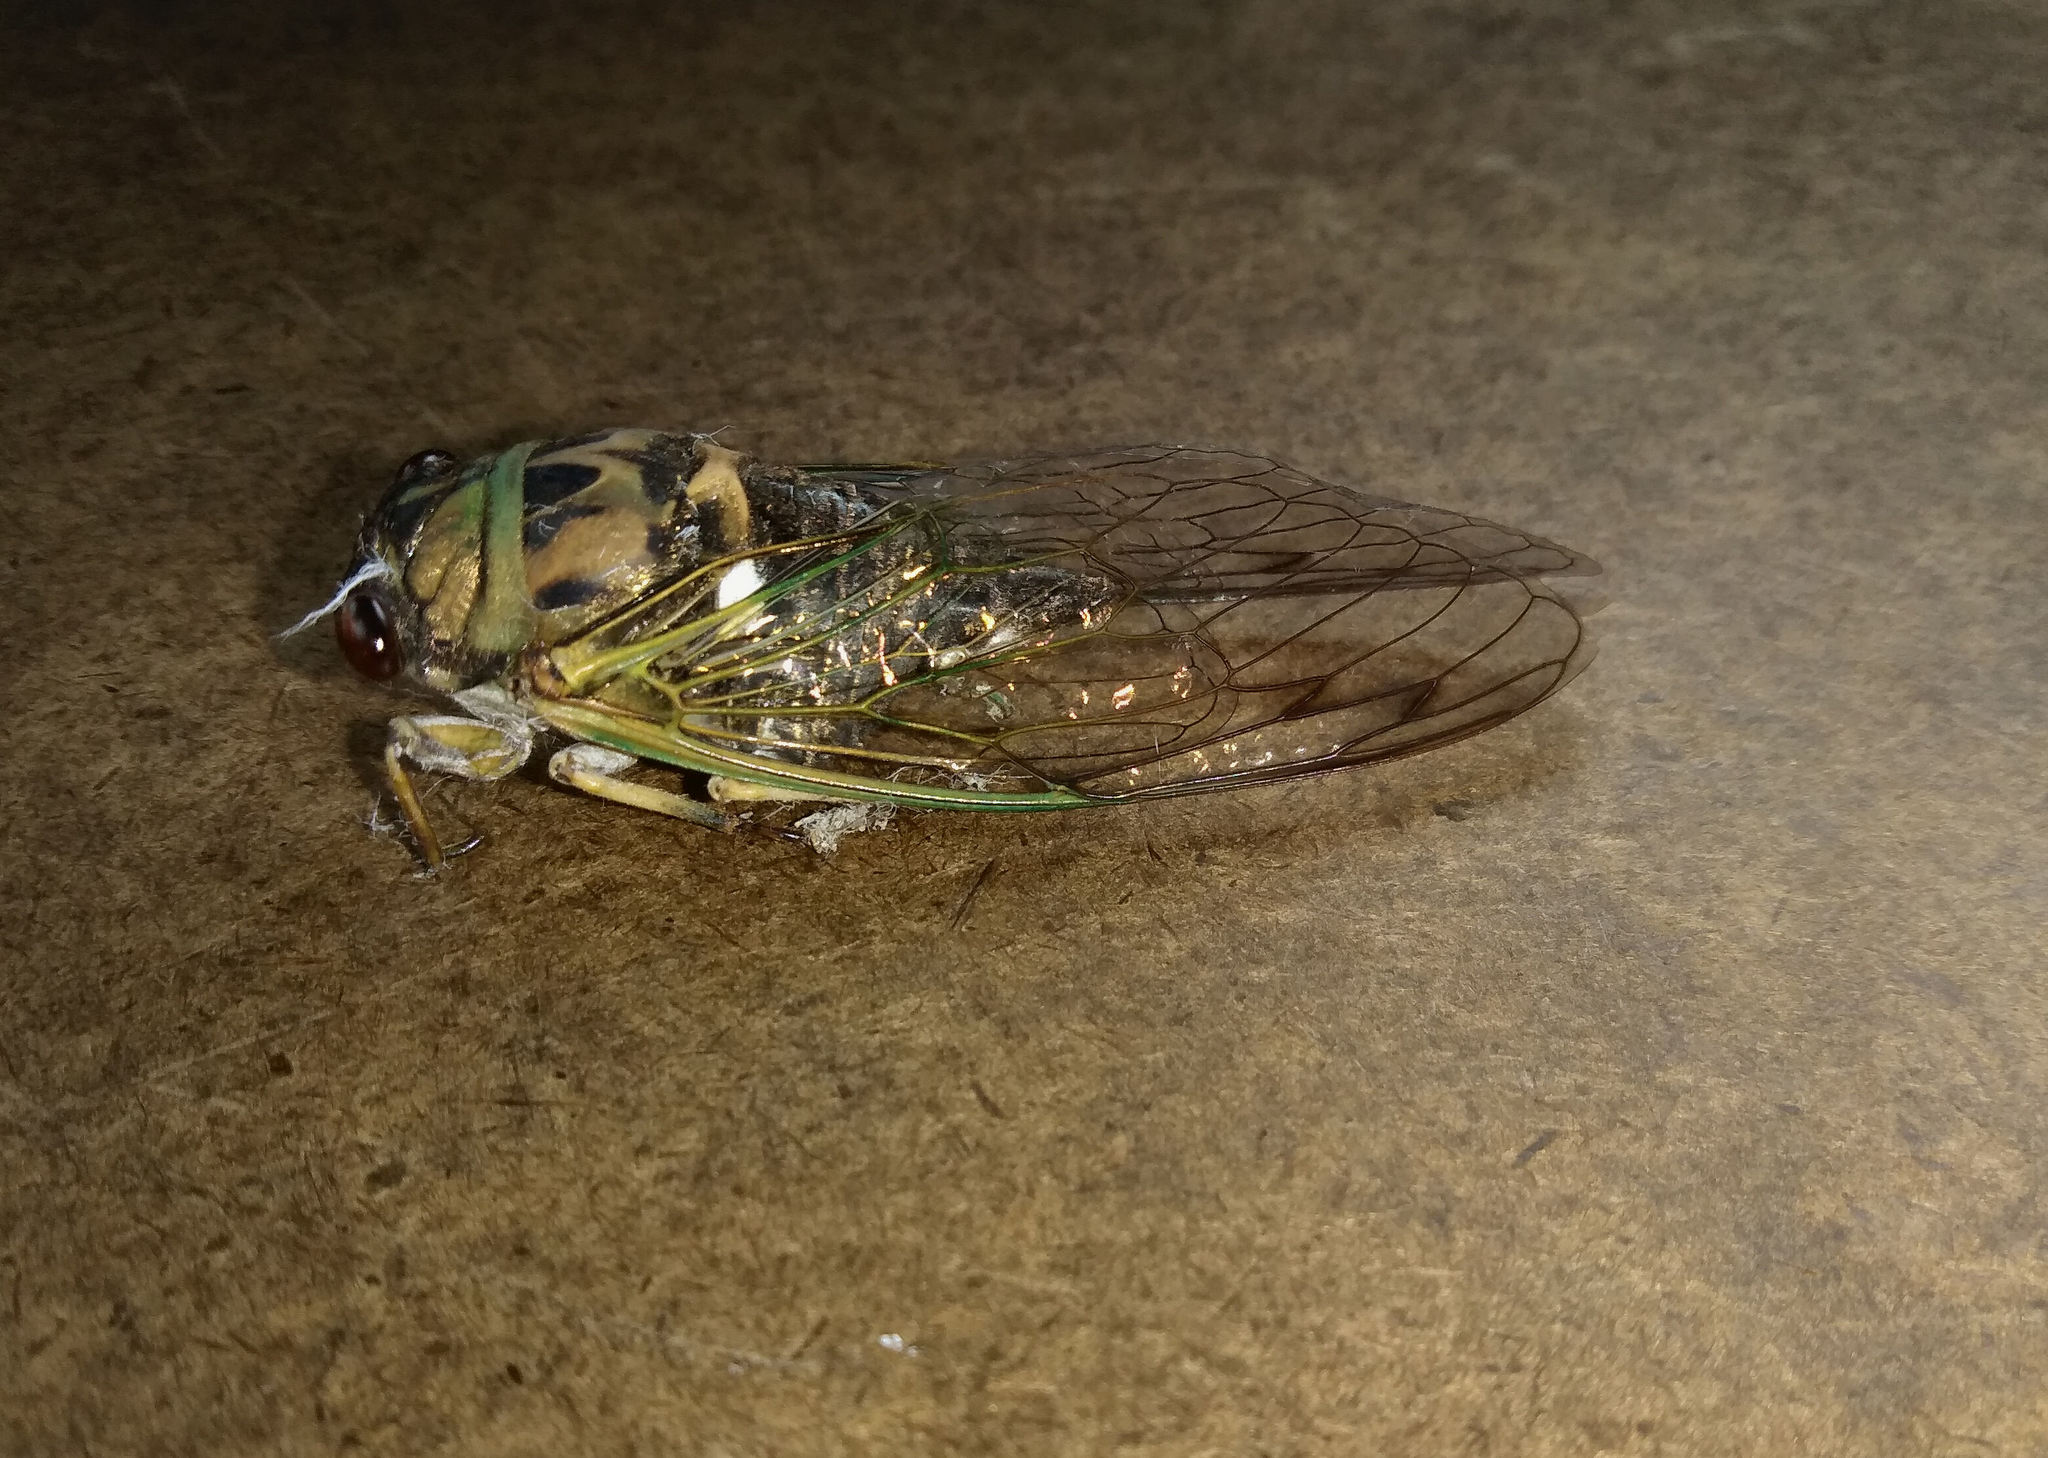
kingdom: Animalia
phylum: Arthropoda
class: Insecta
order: Hemiptera
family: Cicadidae
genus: Neotibicen
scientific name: Neotibicen pruinosus
